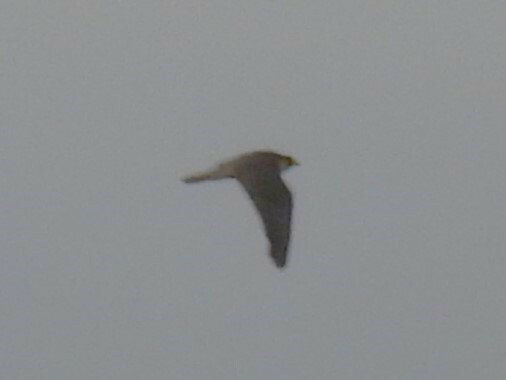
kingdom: Animalia
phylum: Chordata
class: Aves
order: Falconiformes
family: Falconidae
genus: Falco
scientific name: Falco peregrinus
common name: Peregrine falcon
